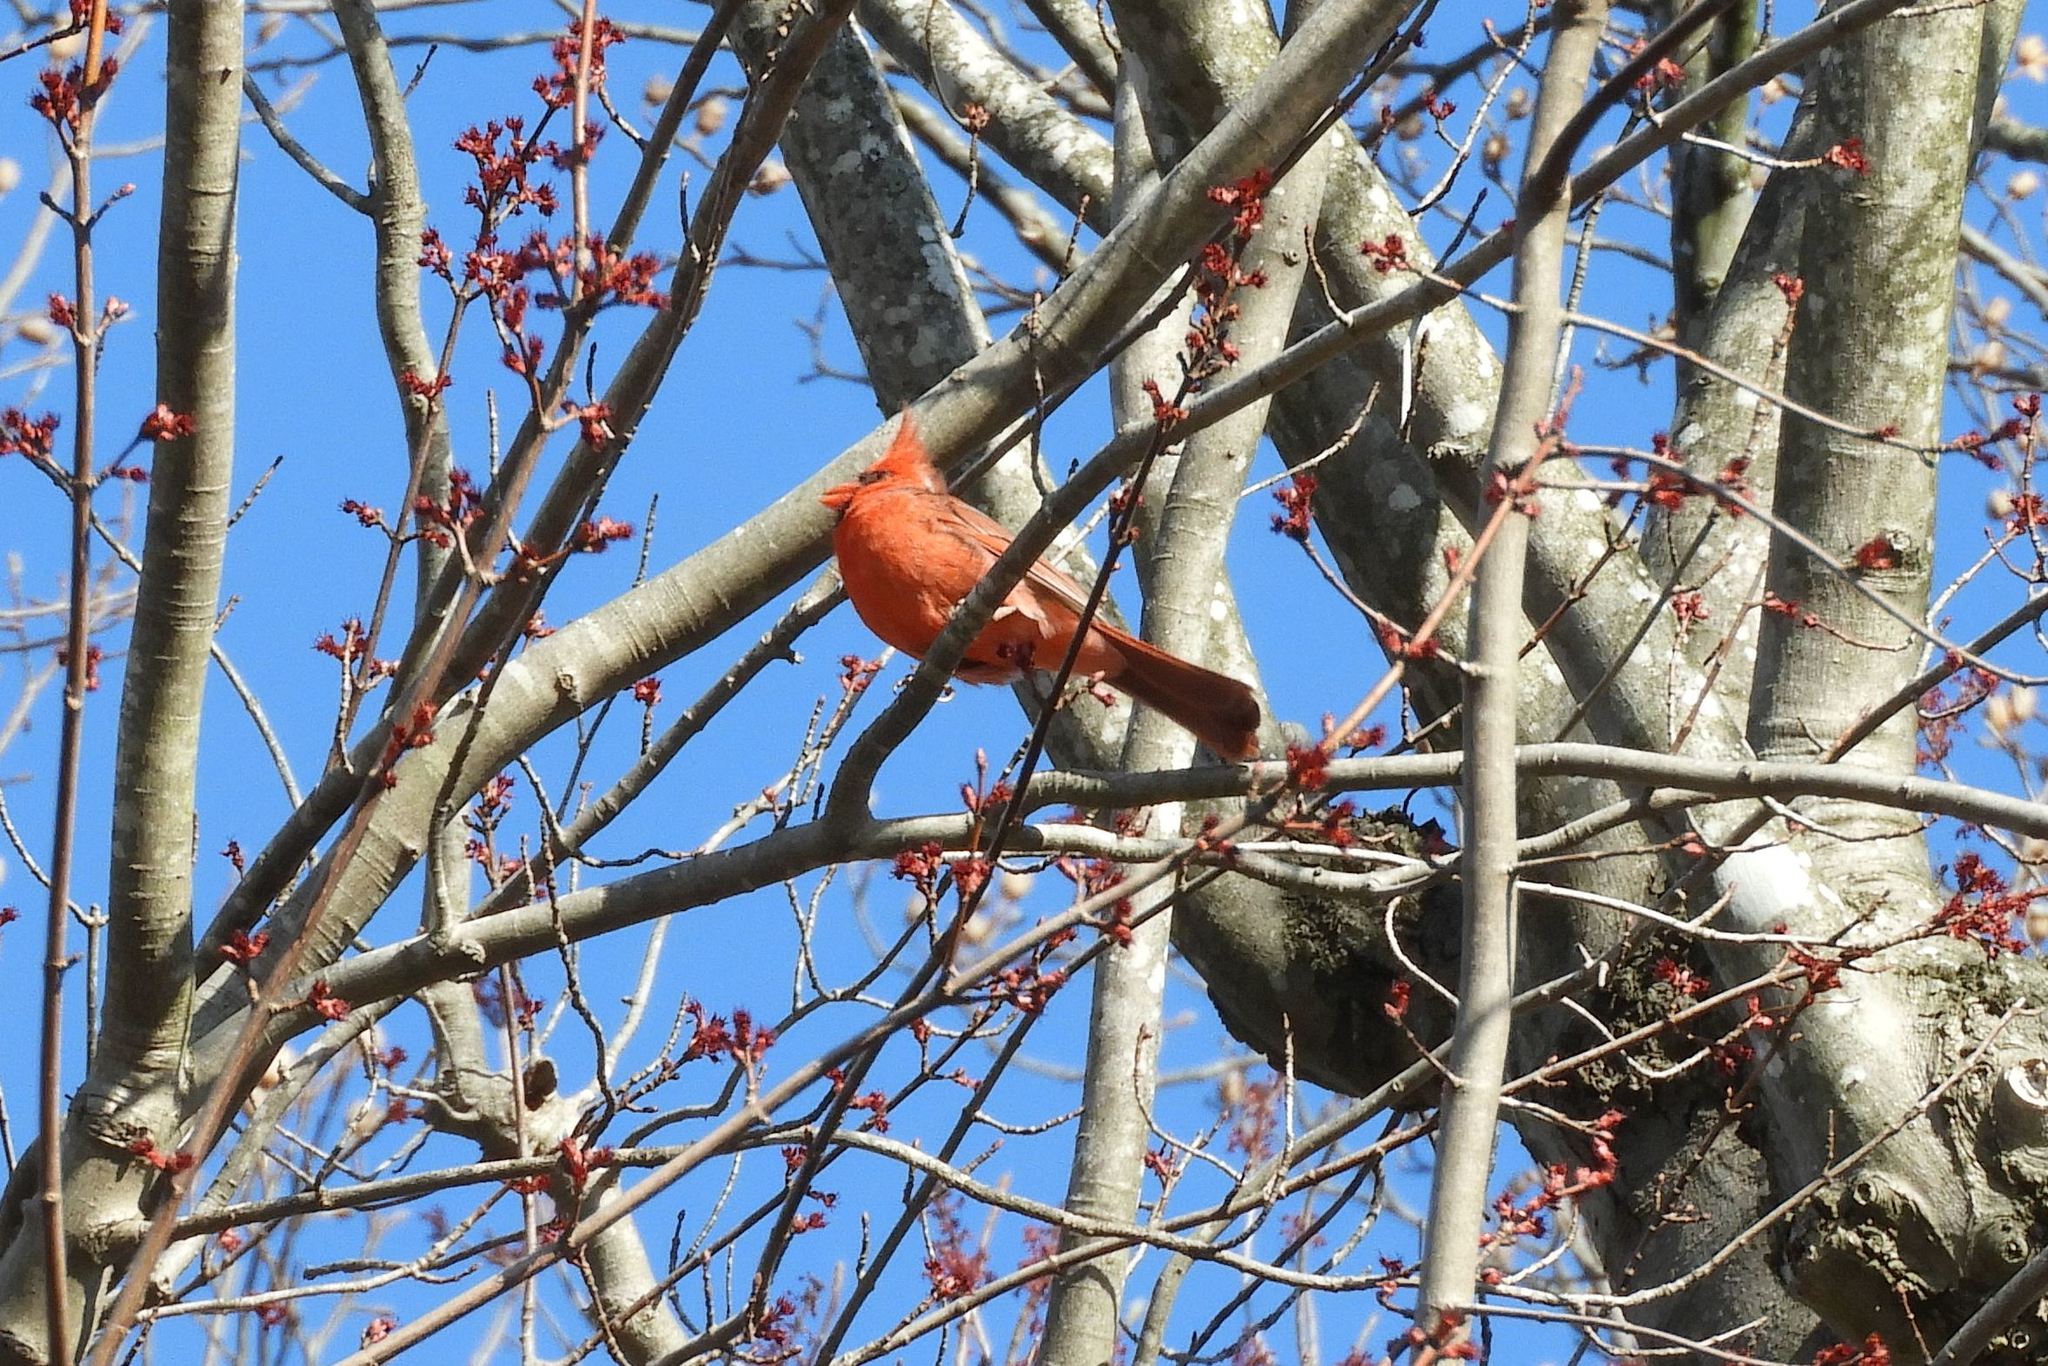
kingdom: Animalia
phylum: Chordata
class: Aves
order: Passeriformes
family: Cardinalidae
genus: Cardinalis
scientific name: Cardinalis cardinalis
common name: Northern cardinal
